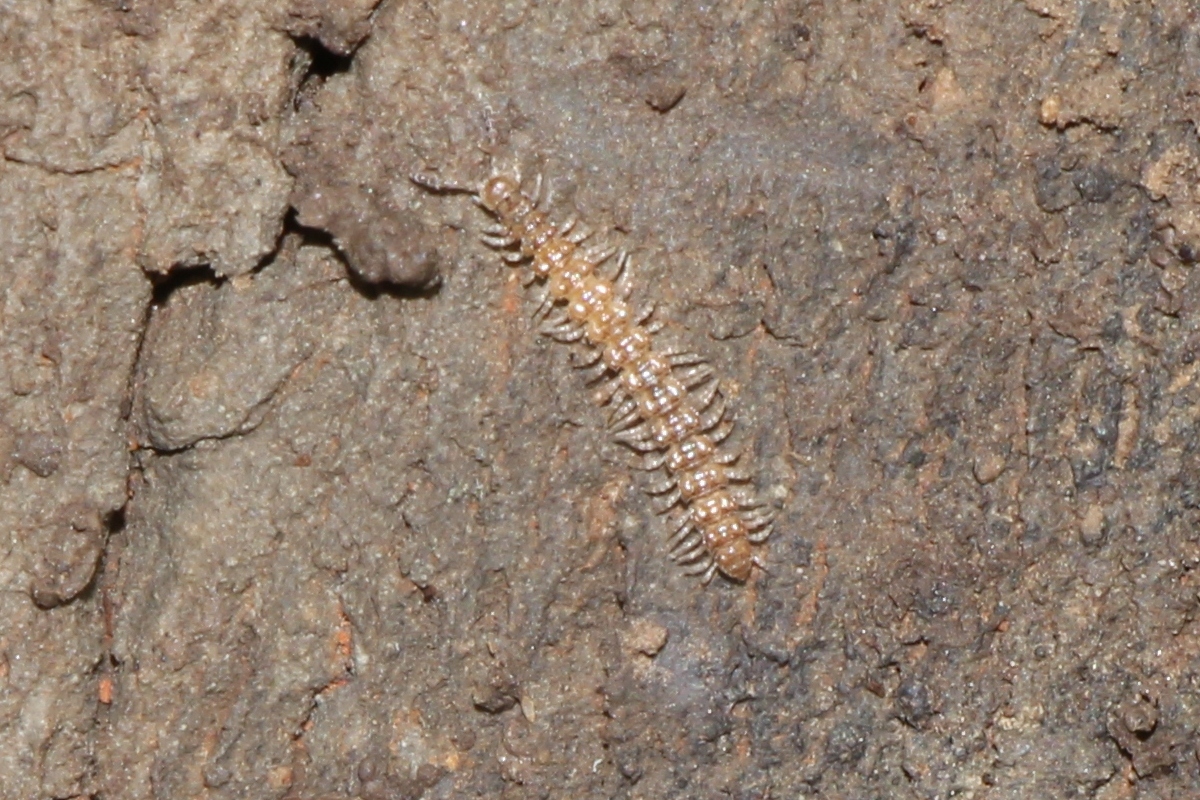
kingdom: Animalia
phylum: Arthropoda
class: Diplopoda
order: Polydesmida
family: Polydesmidae
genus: Brachydesmus
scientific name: Brachydesmus superus
